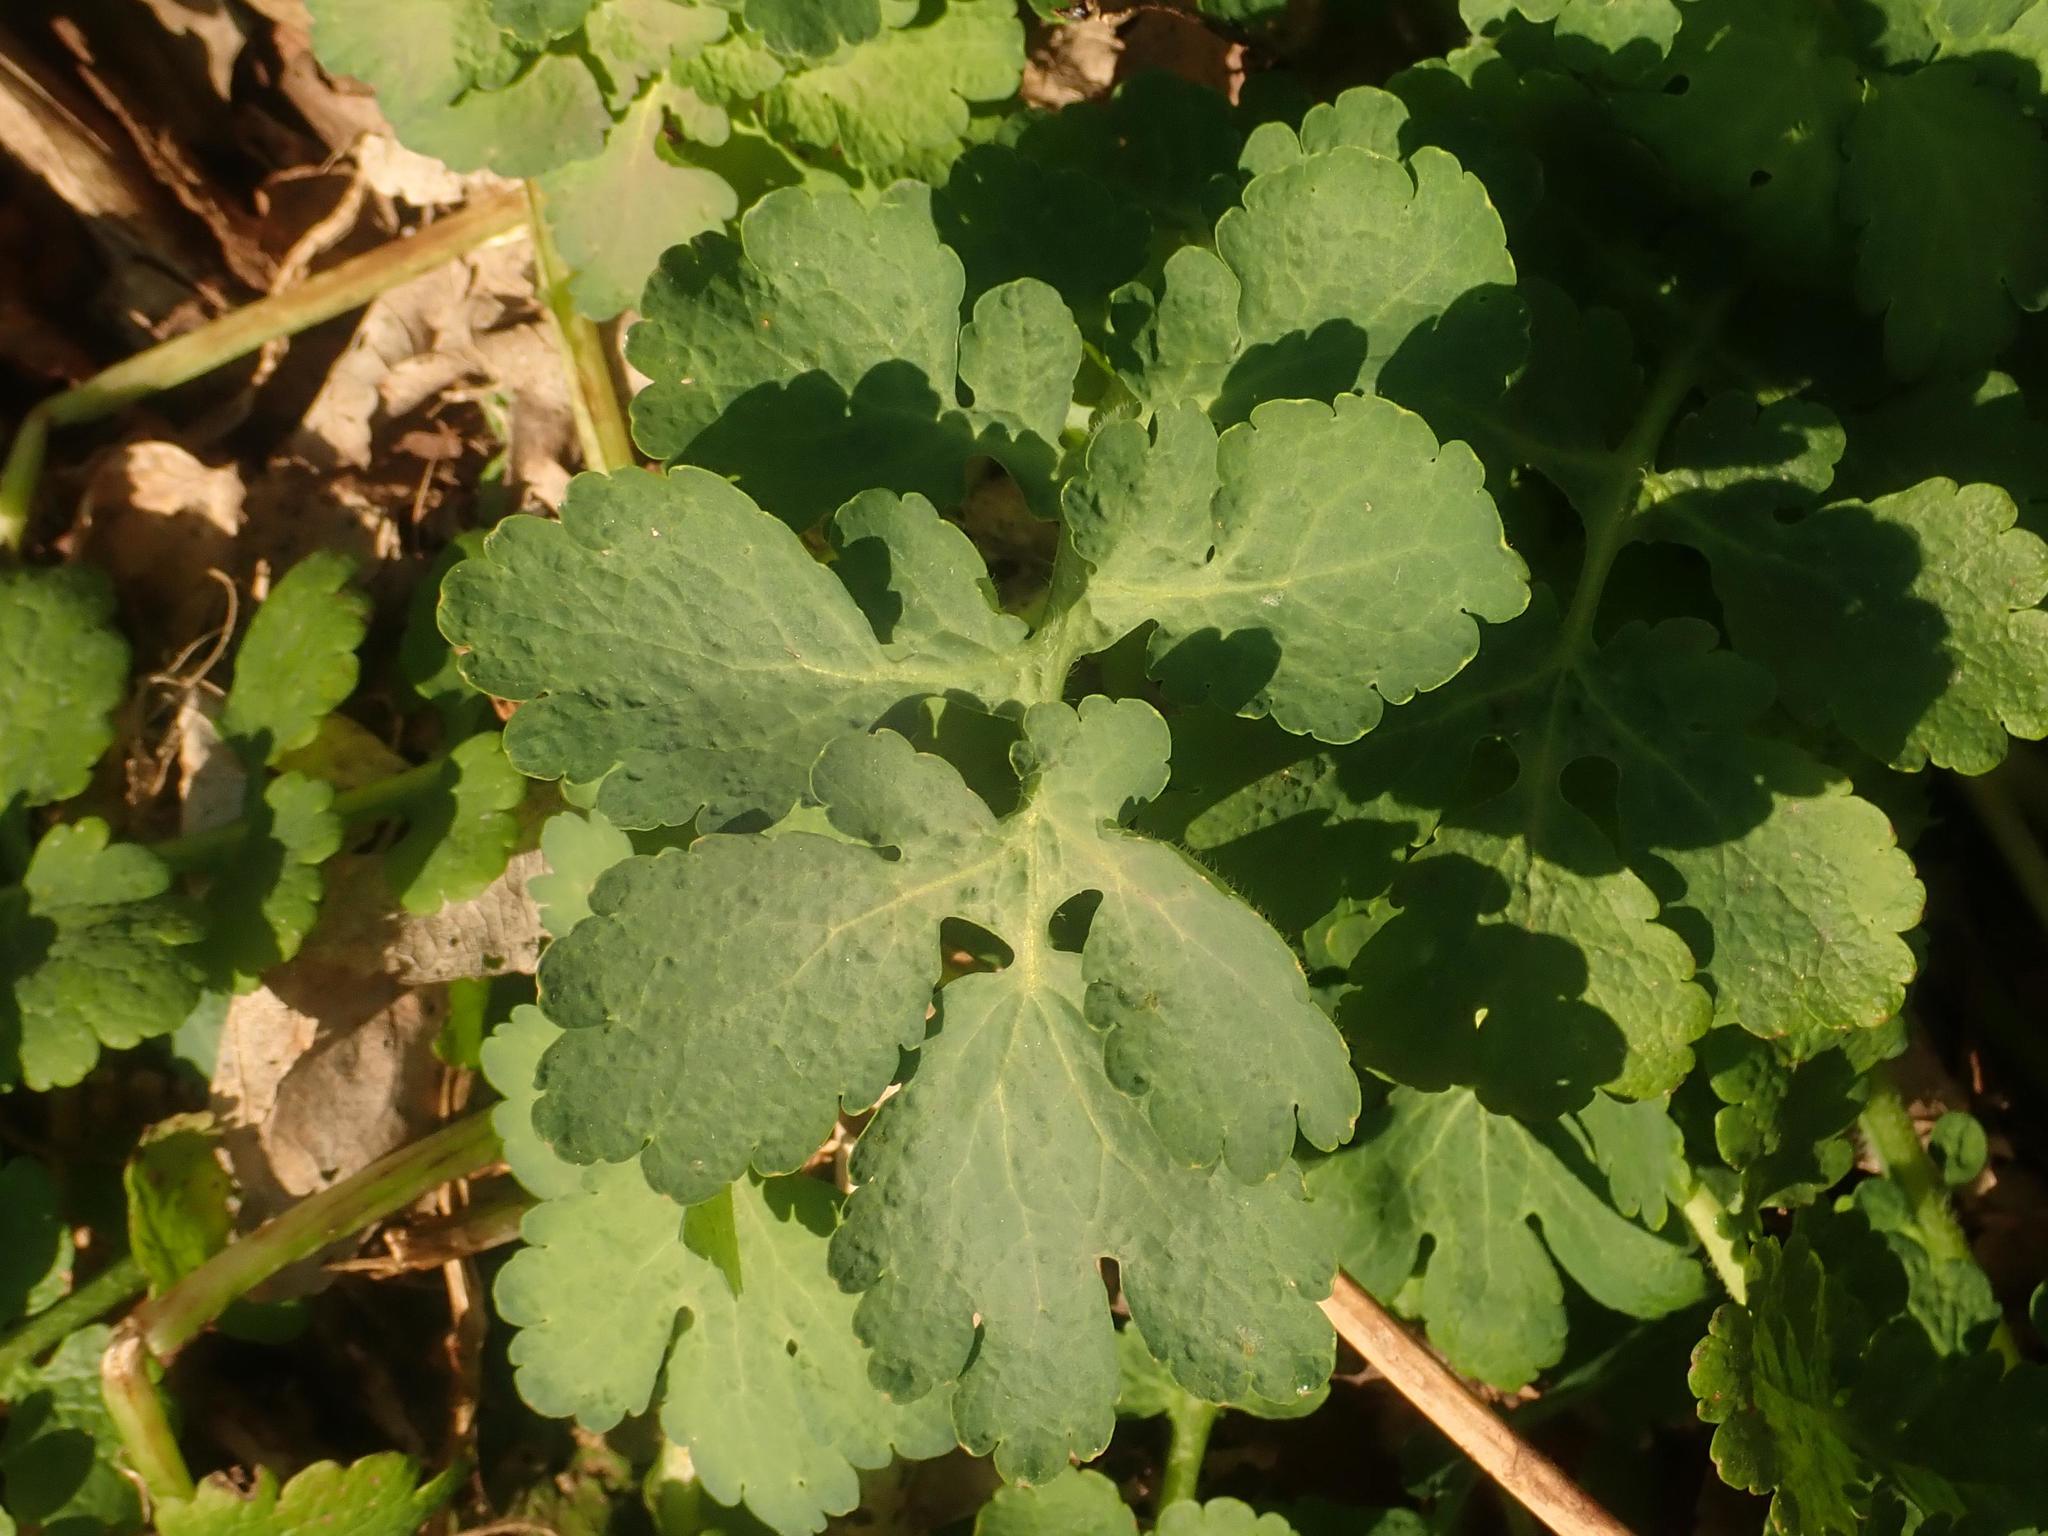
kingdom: Plantae
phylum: Tracheophyta
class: Magnoliopsida
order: Ranunculales
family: Papaveraceae
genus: Chelidonium
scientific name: Chelidonium majus
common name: Greater celandine
